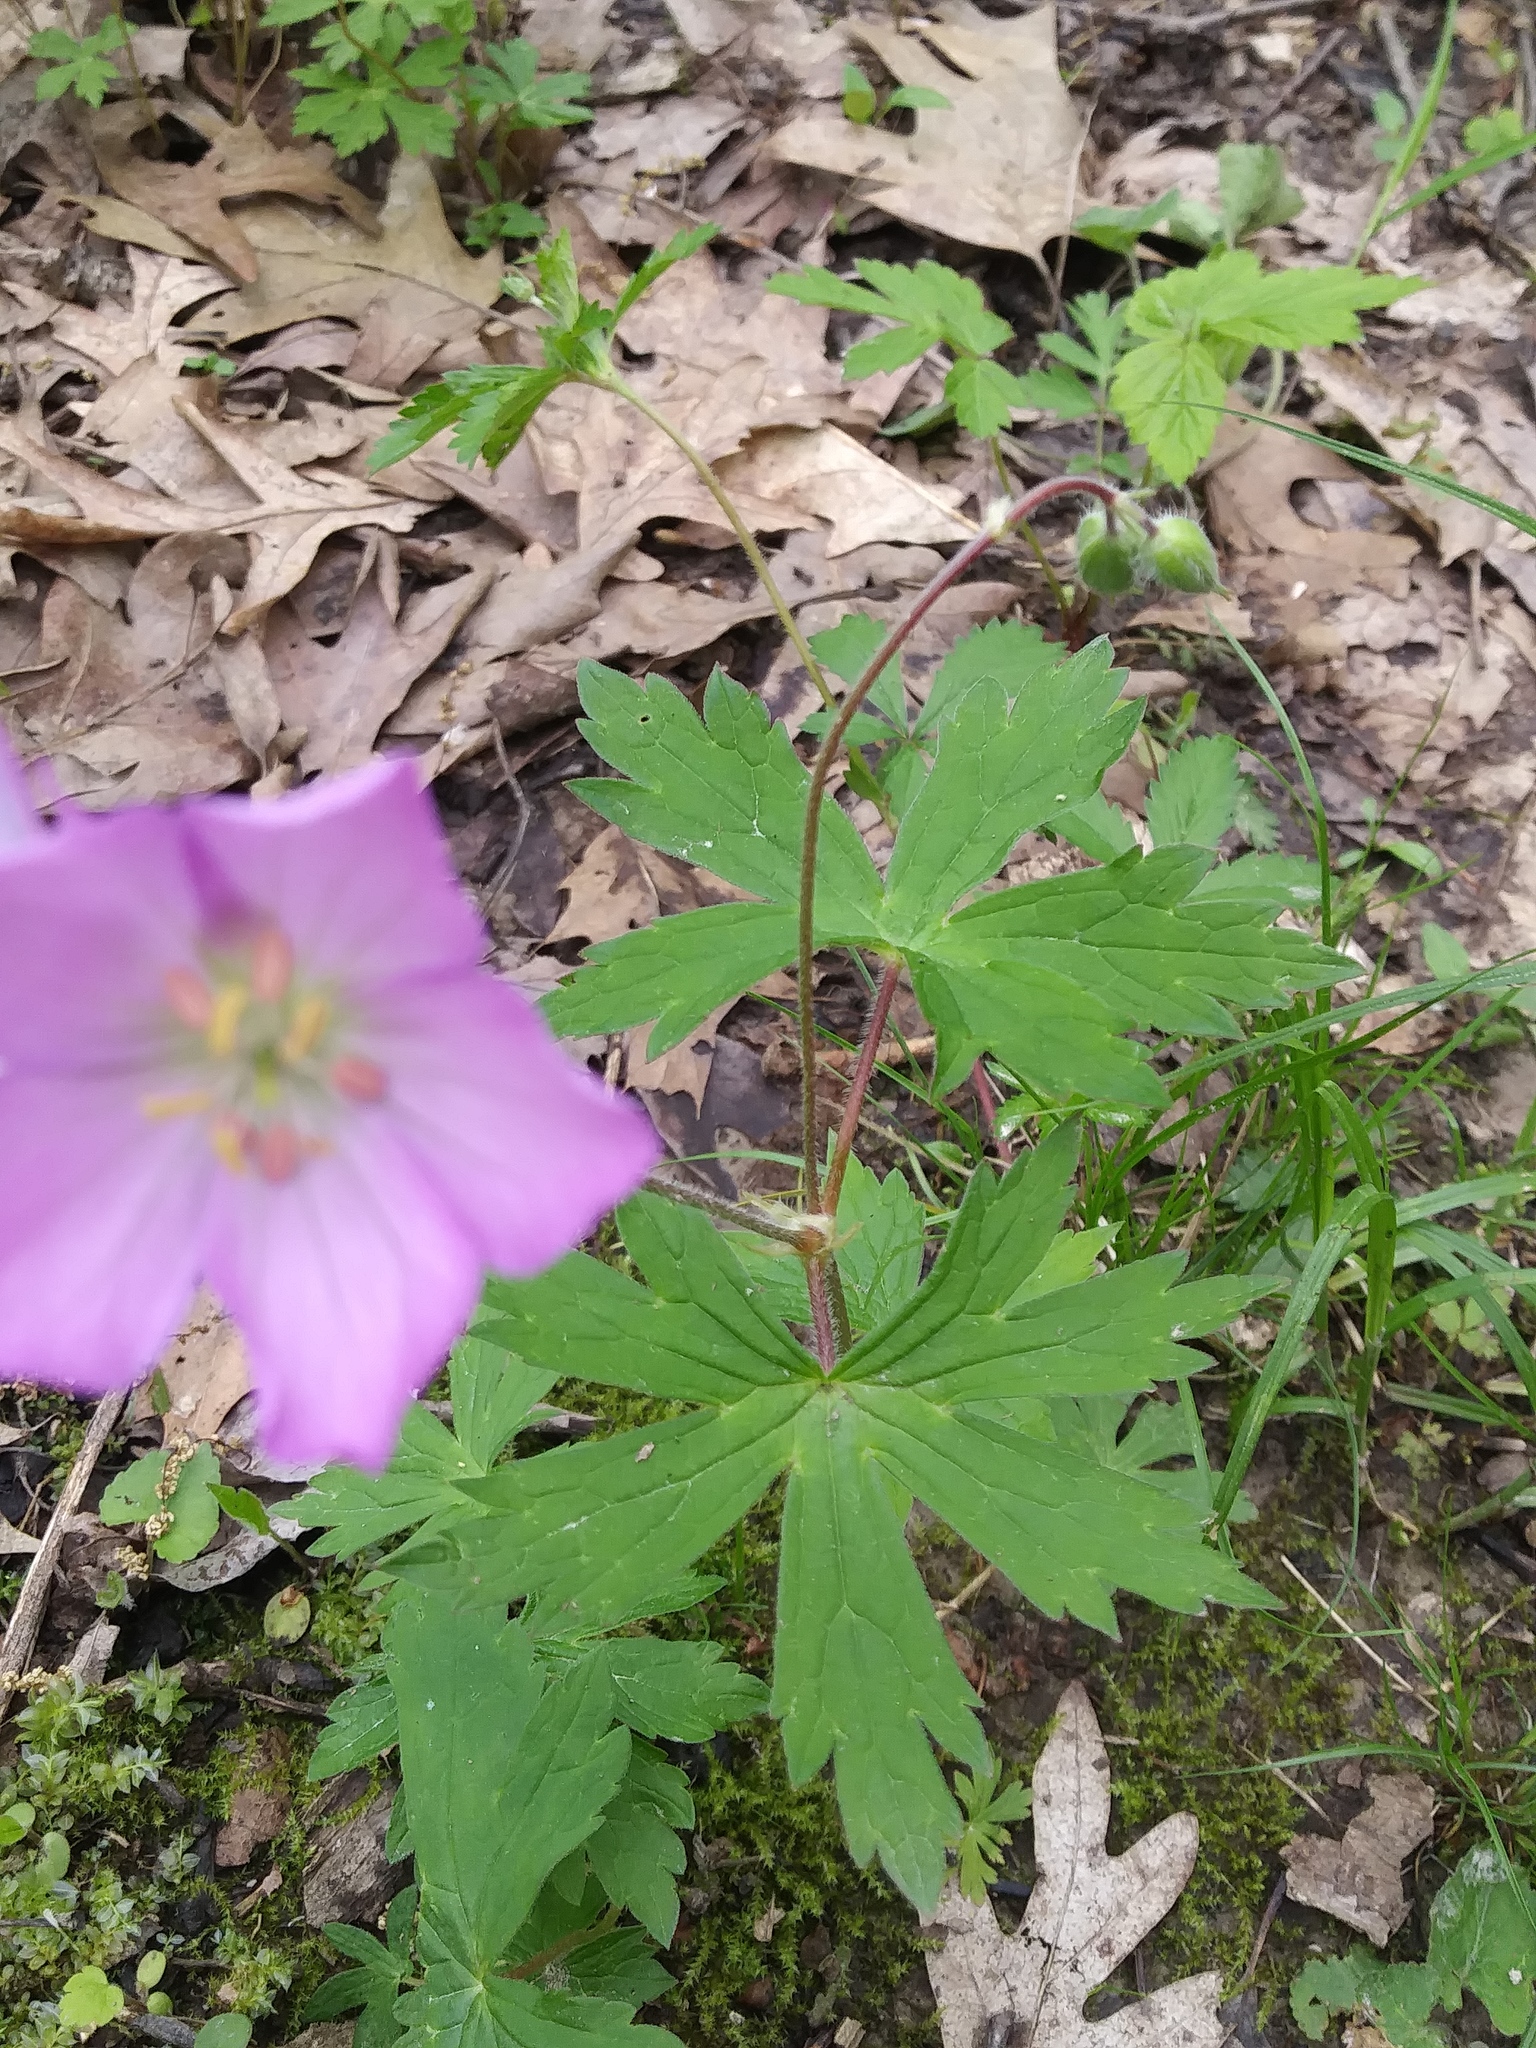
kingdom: Plantae
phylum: Tracheophyta
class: Magnoliopsida
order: Geraniales
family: Geraniaceae
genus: Geranium
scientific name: Geranium maculatum
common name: Spotted geranium
